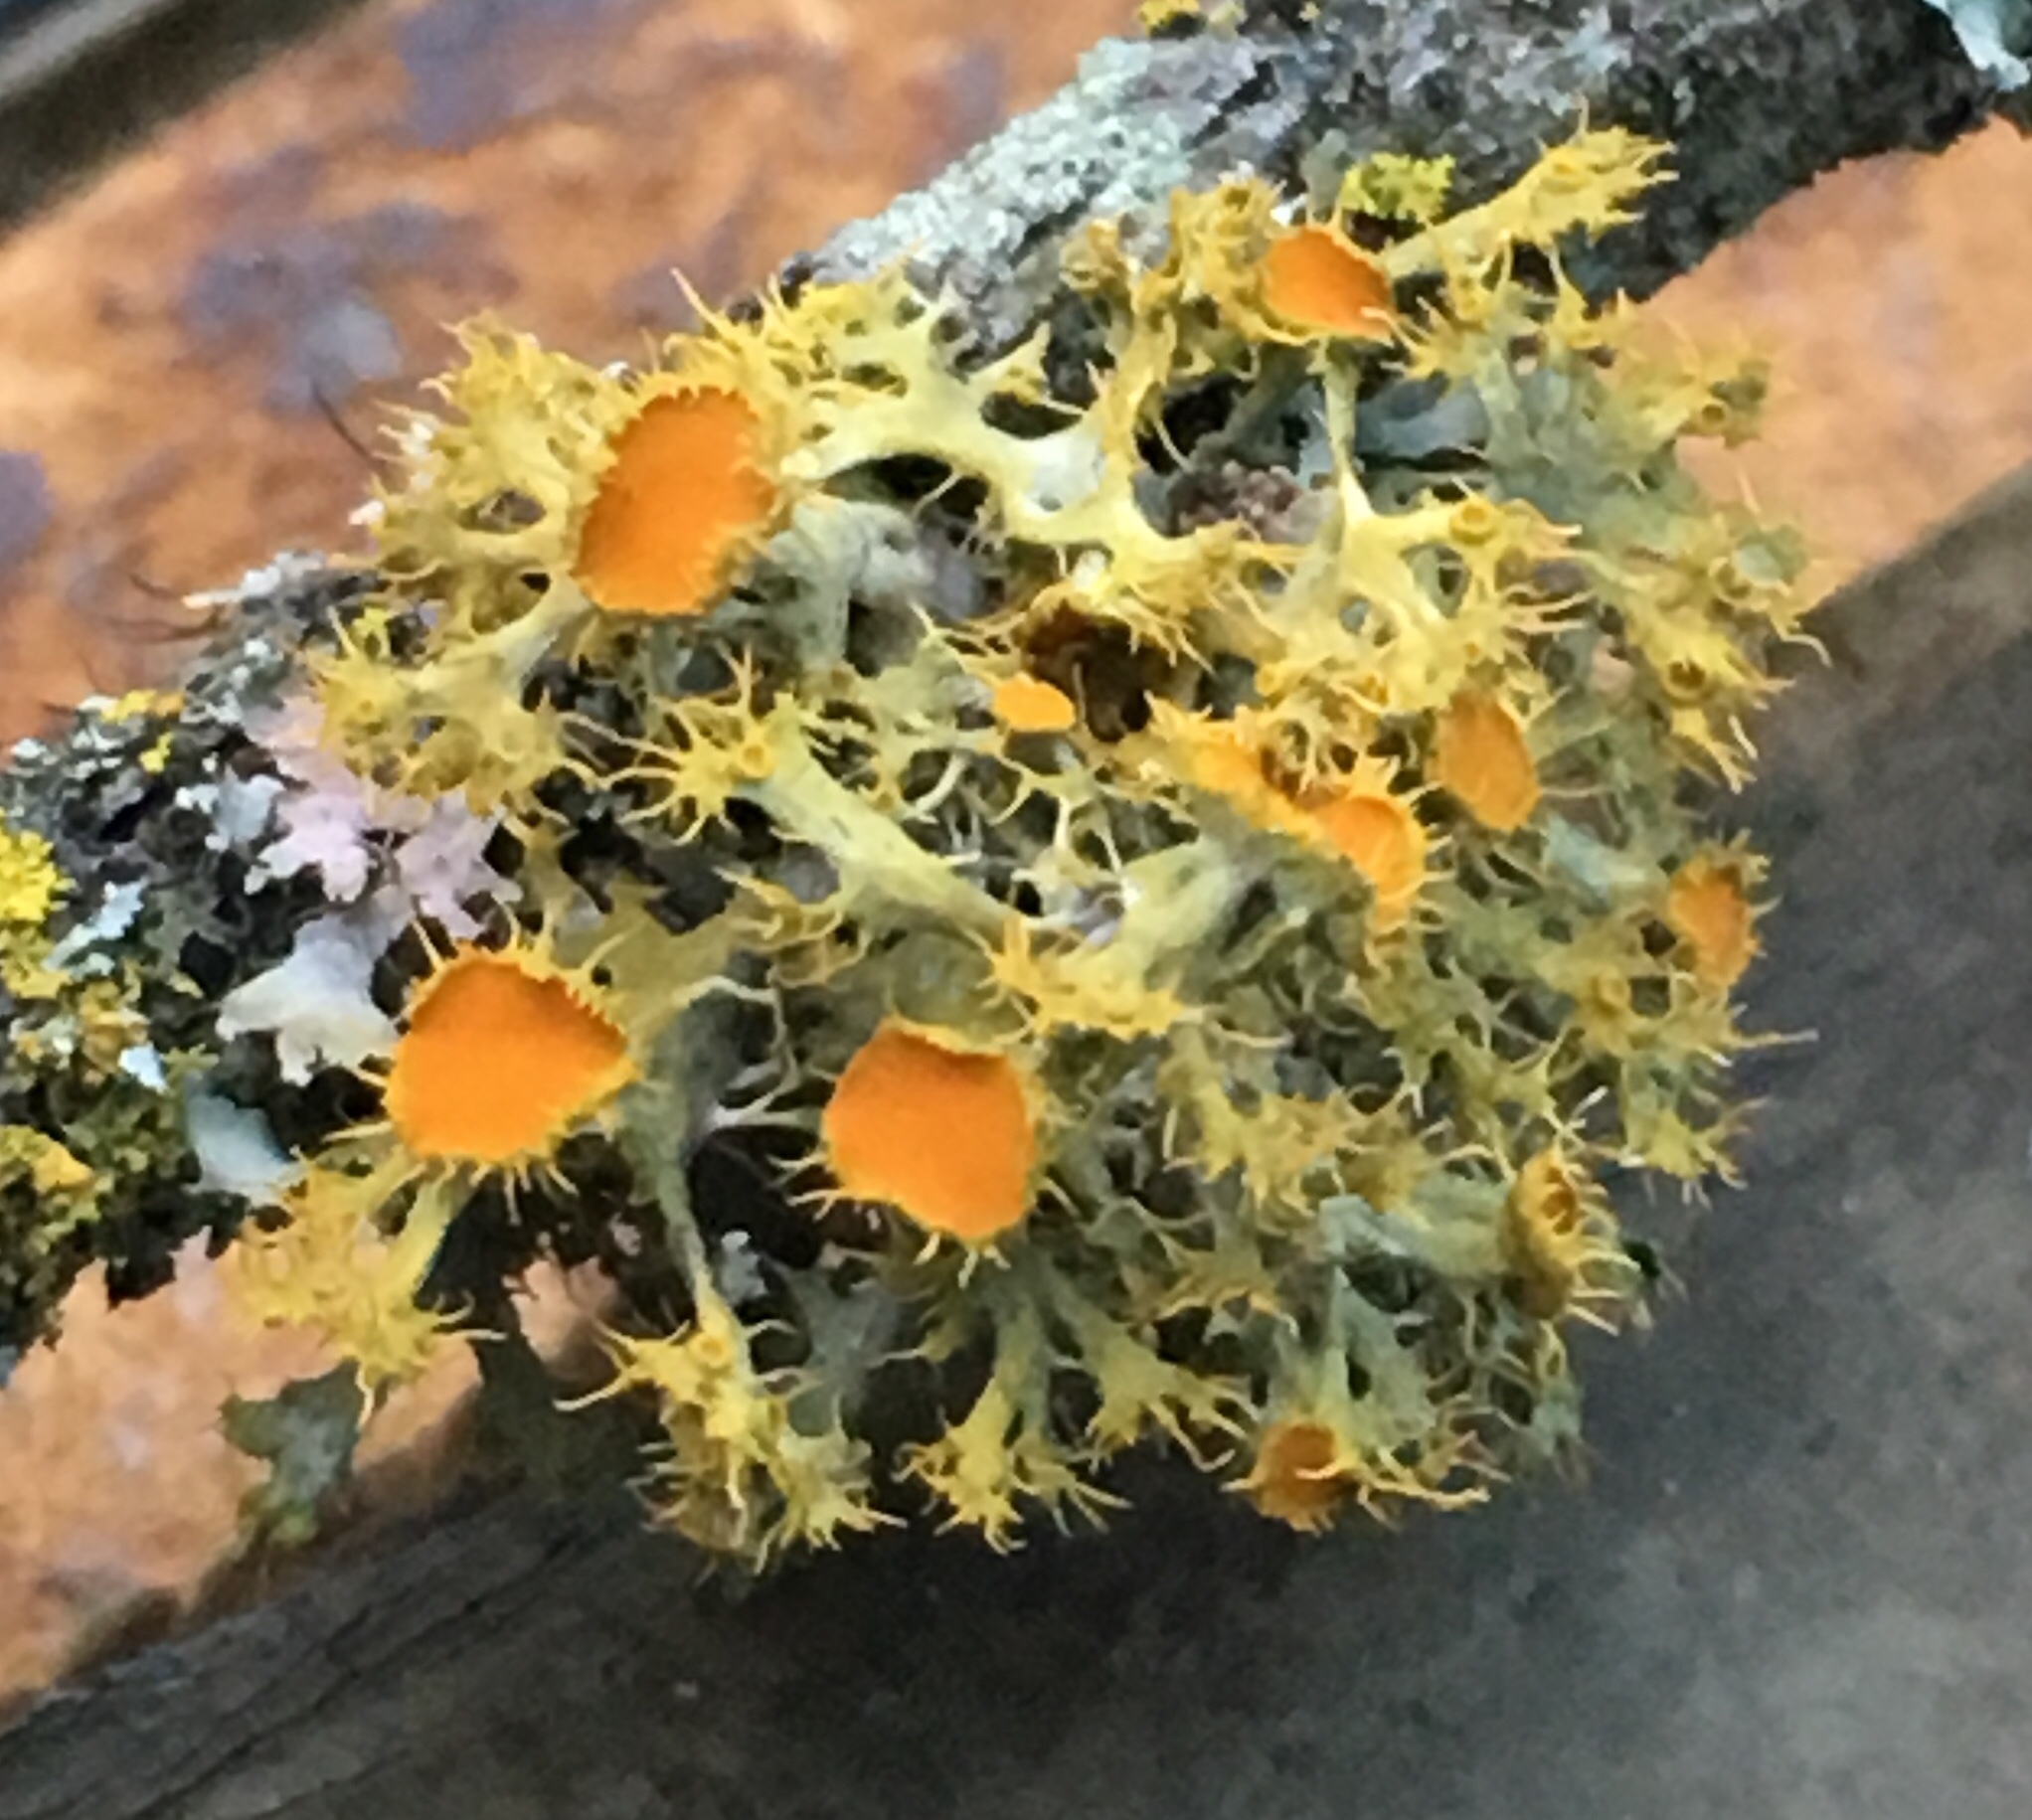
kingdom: Fungi
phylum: Ascomycota
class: Lecanoromycetes
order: Teloschistales
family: Teloschistaceae
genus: Niorma
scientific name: Niorma chrysophthalma
